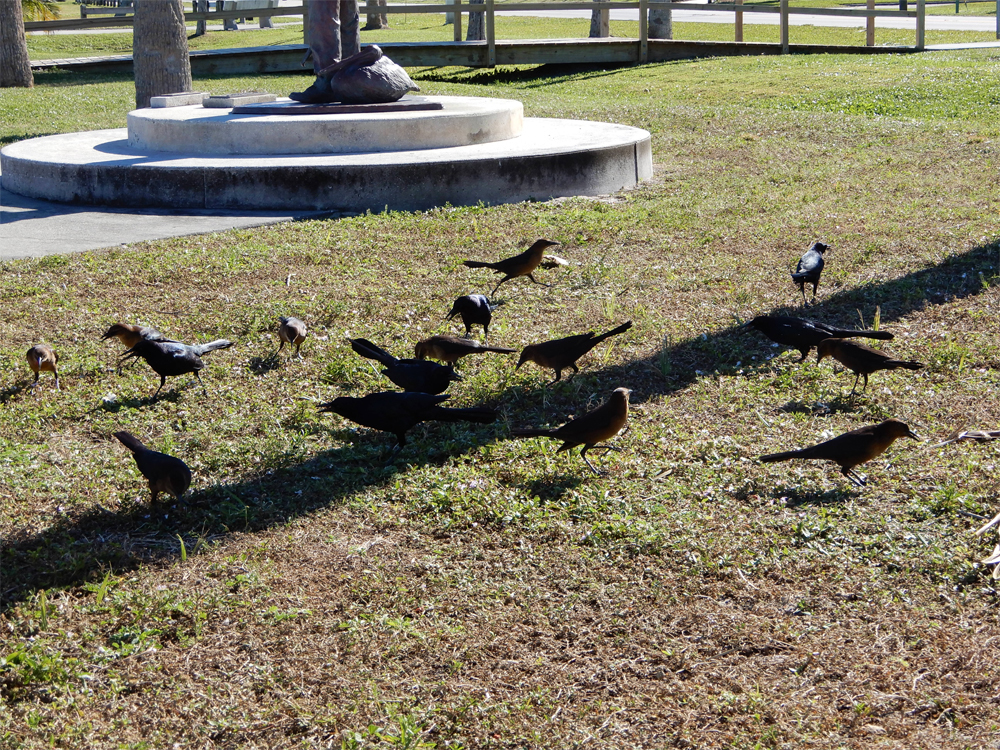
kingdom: Animalia
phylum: Chordata
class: Aves
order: Passeriformes
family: Icteridae
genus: Quiscalus
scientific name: Quiscalus major
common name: Boat-tailed grackle
